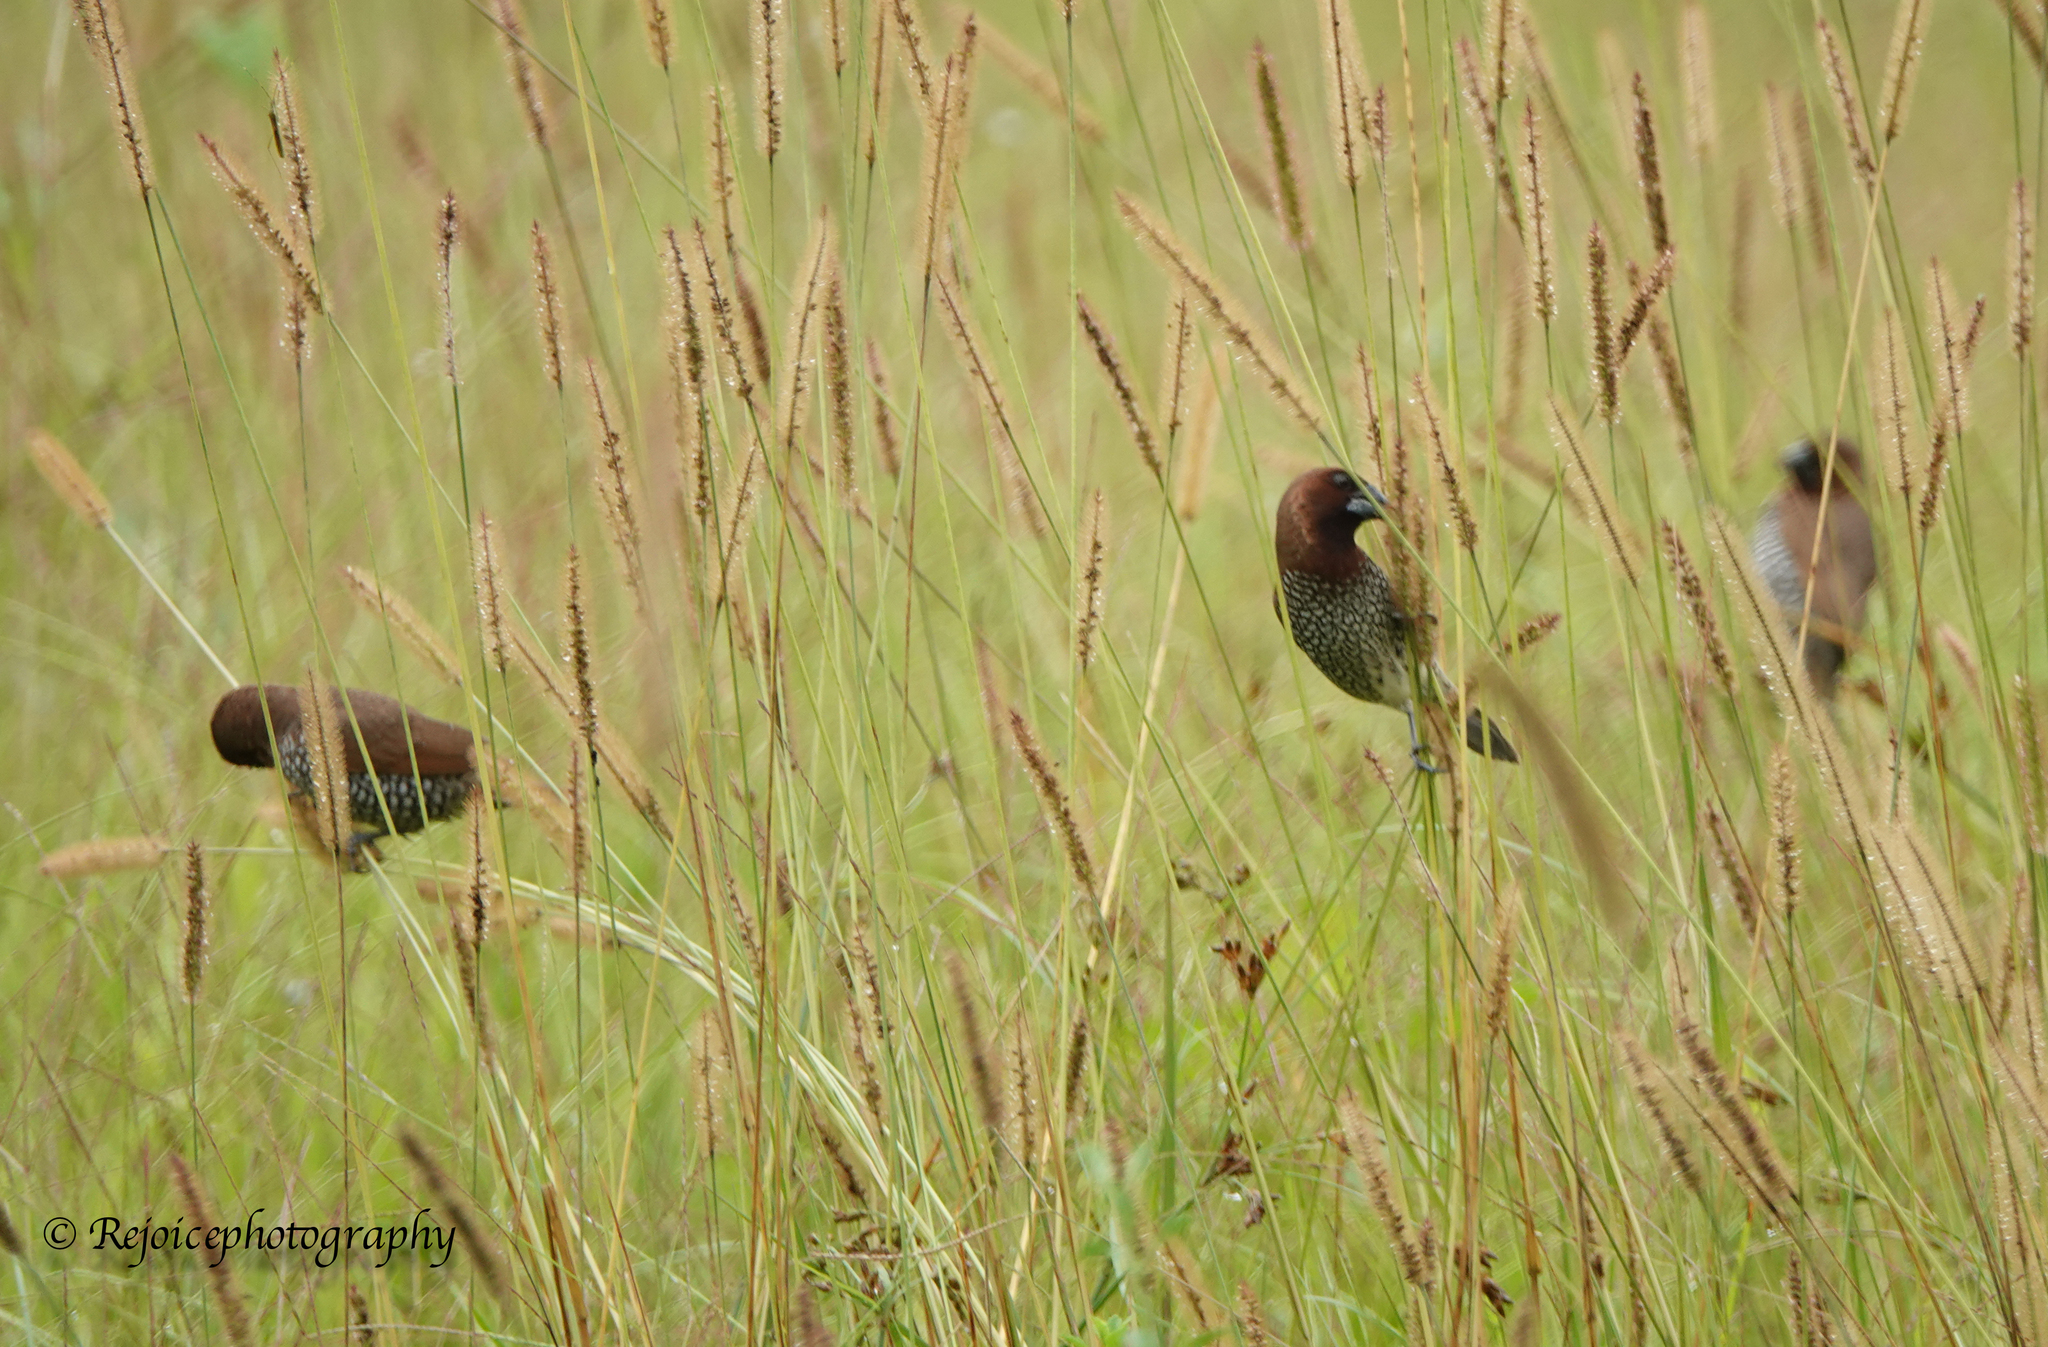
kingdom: Animalia
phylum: Chordata
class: Aves
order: Passeriformes
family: Estrildidae
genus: Lonchura
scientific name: Lonchura punctulata
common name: Scaly-breasted munia
